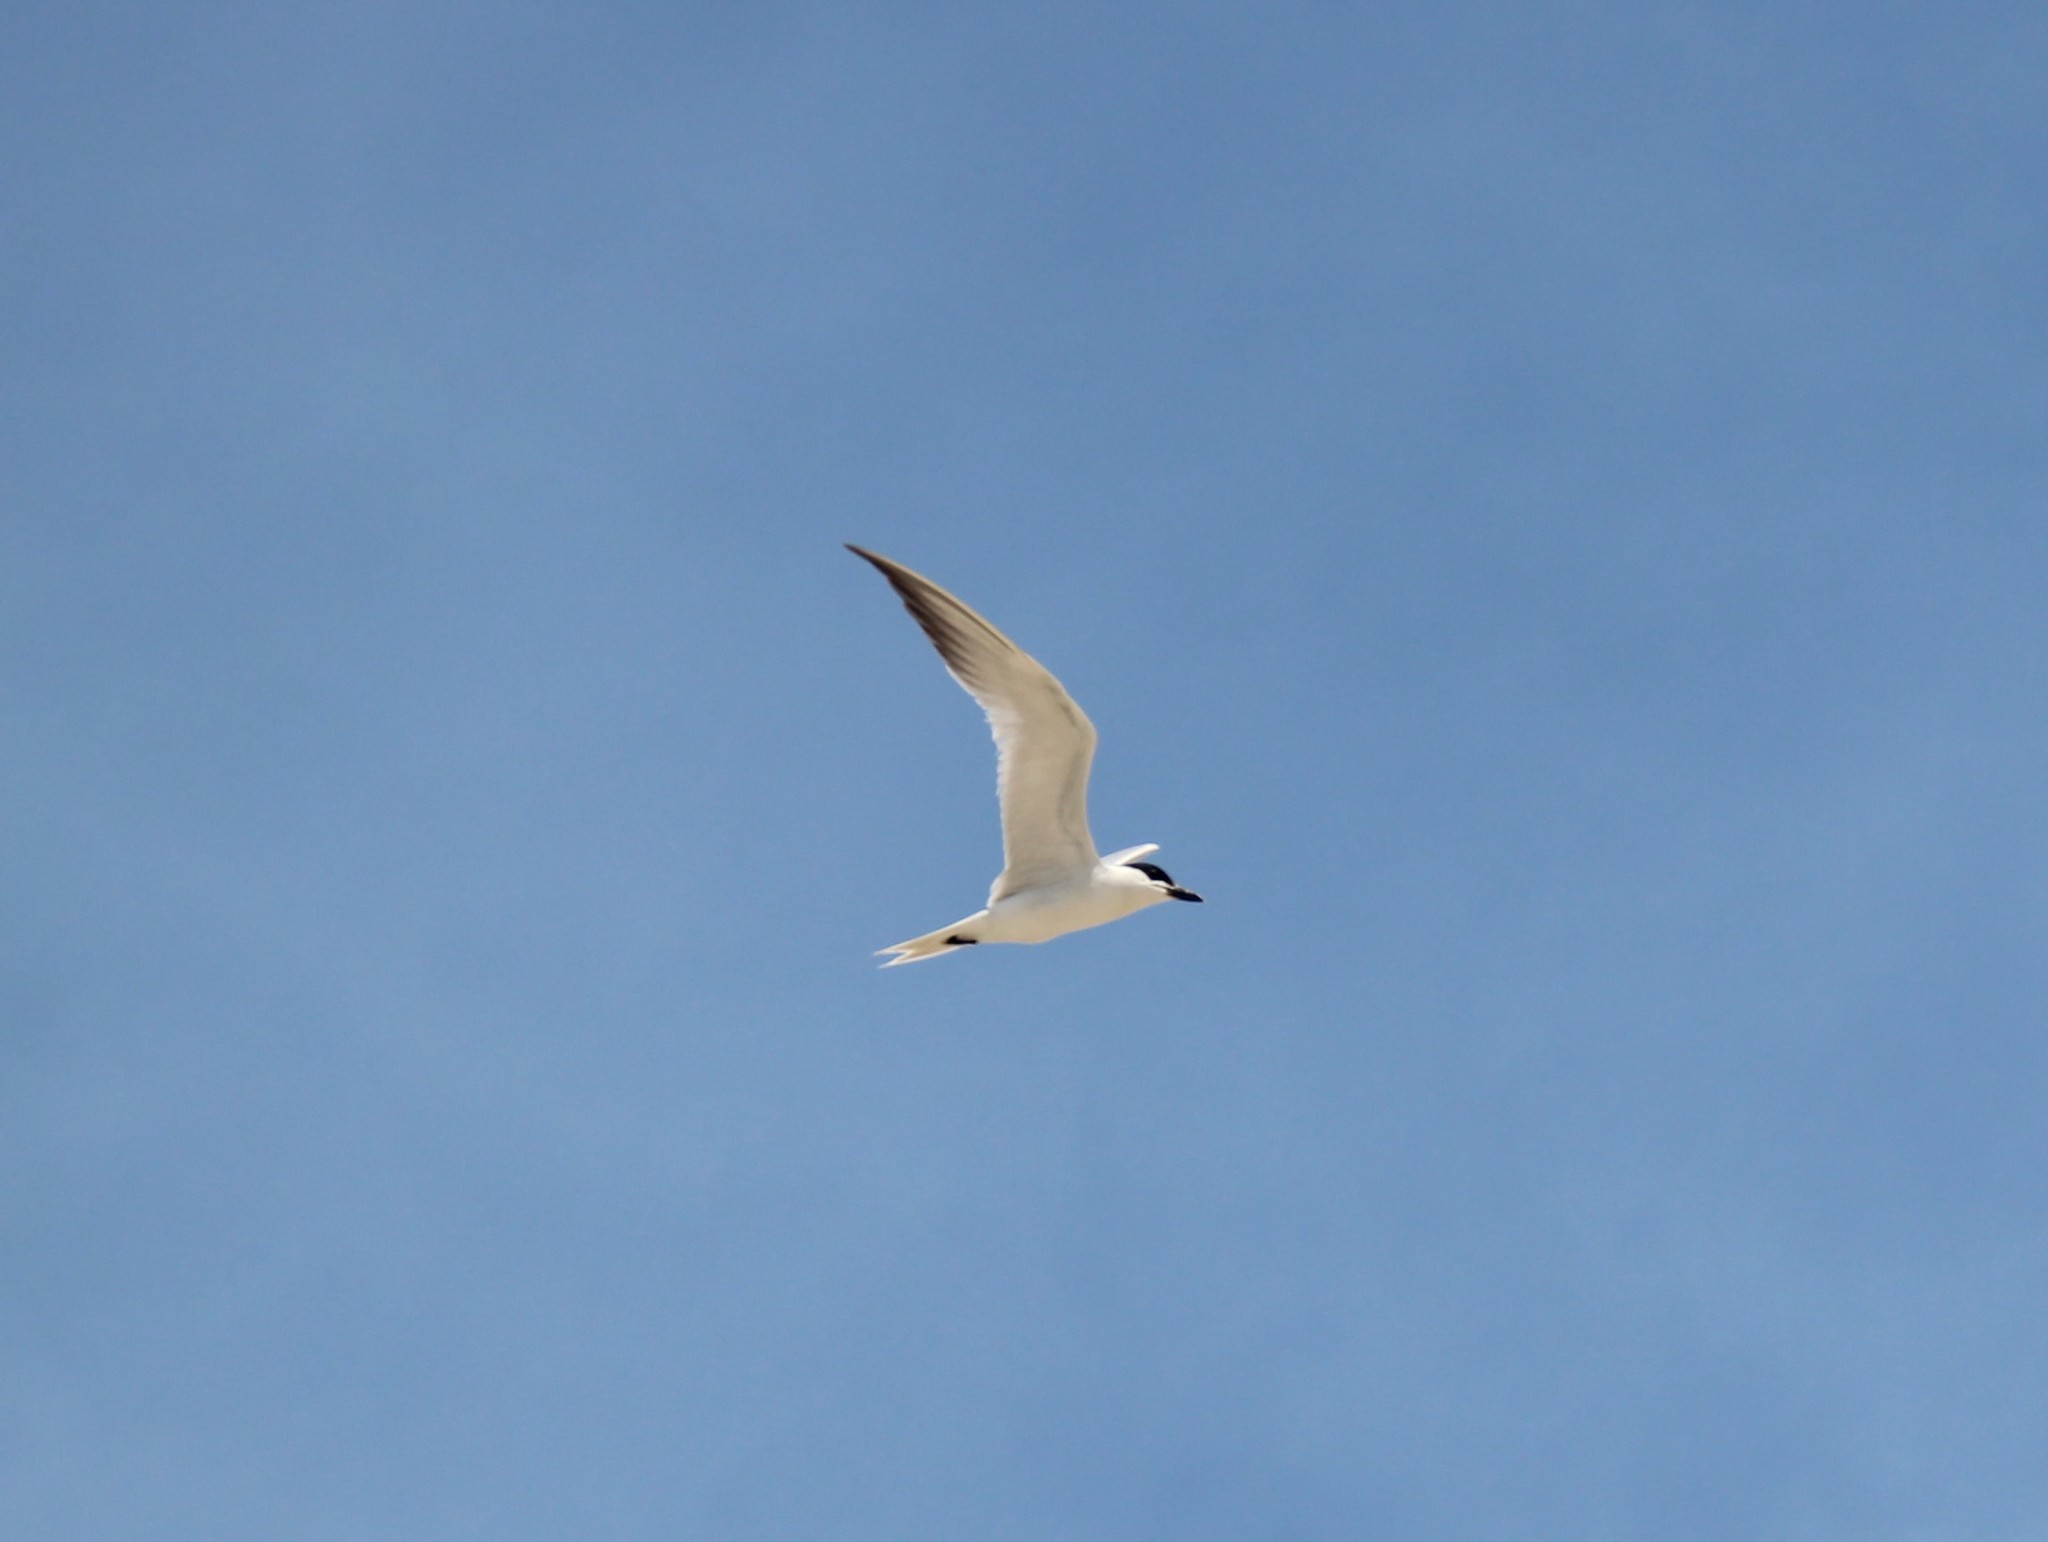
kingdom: Animalia
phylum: Chordata
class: Aves
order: Charadriiformes
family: Laridae
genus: Gelochelidon
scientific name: Gelochelidon nilotica
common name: Gull-billed tern
